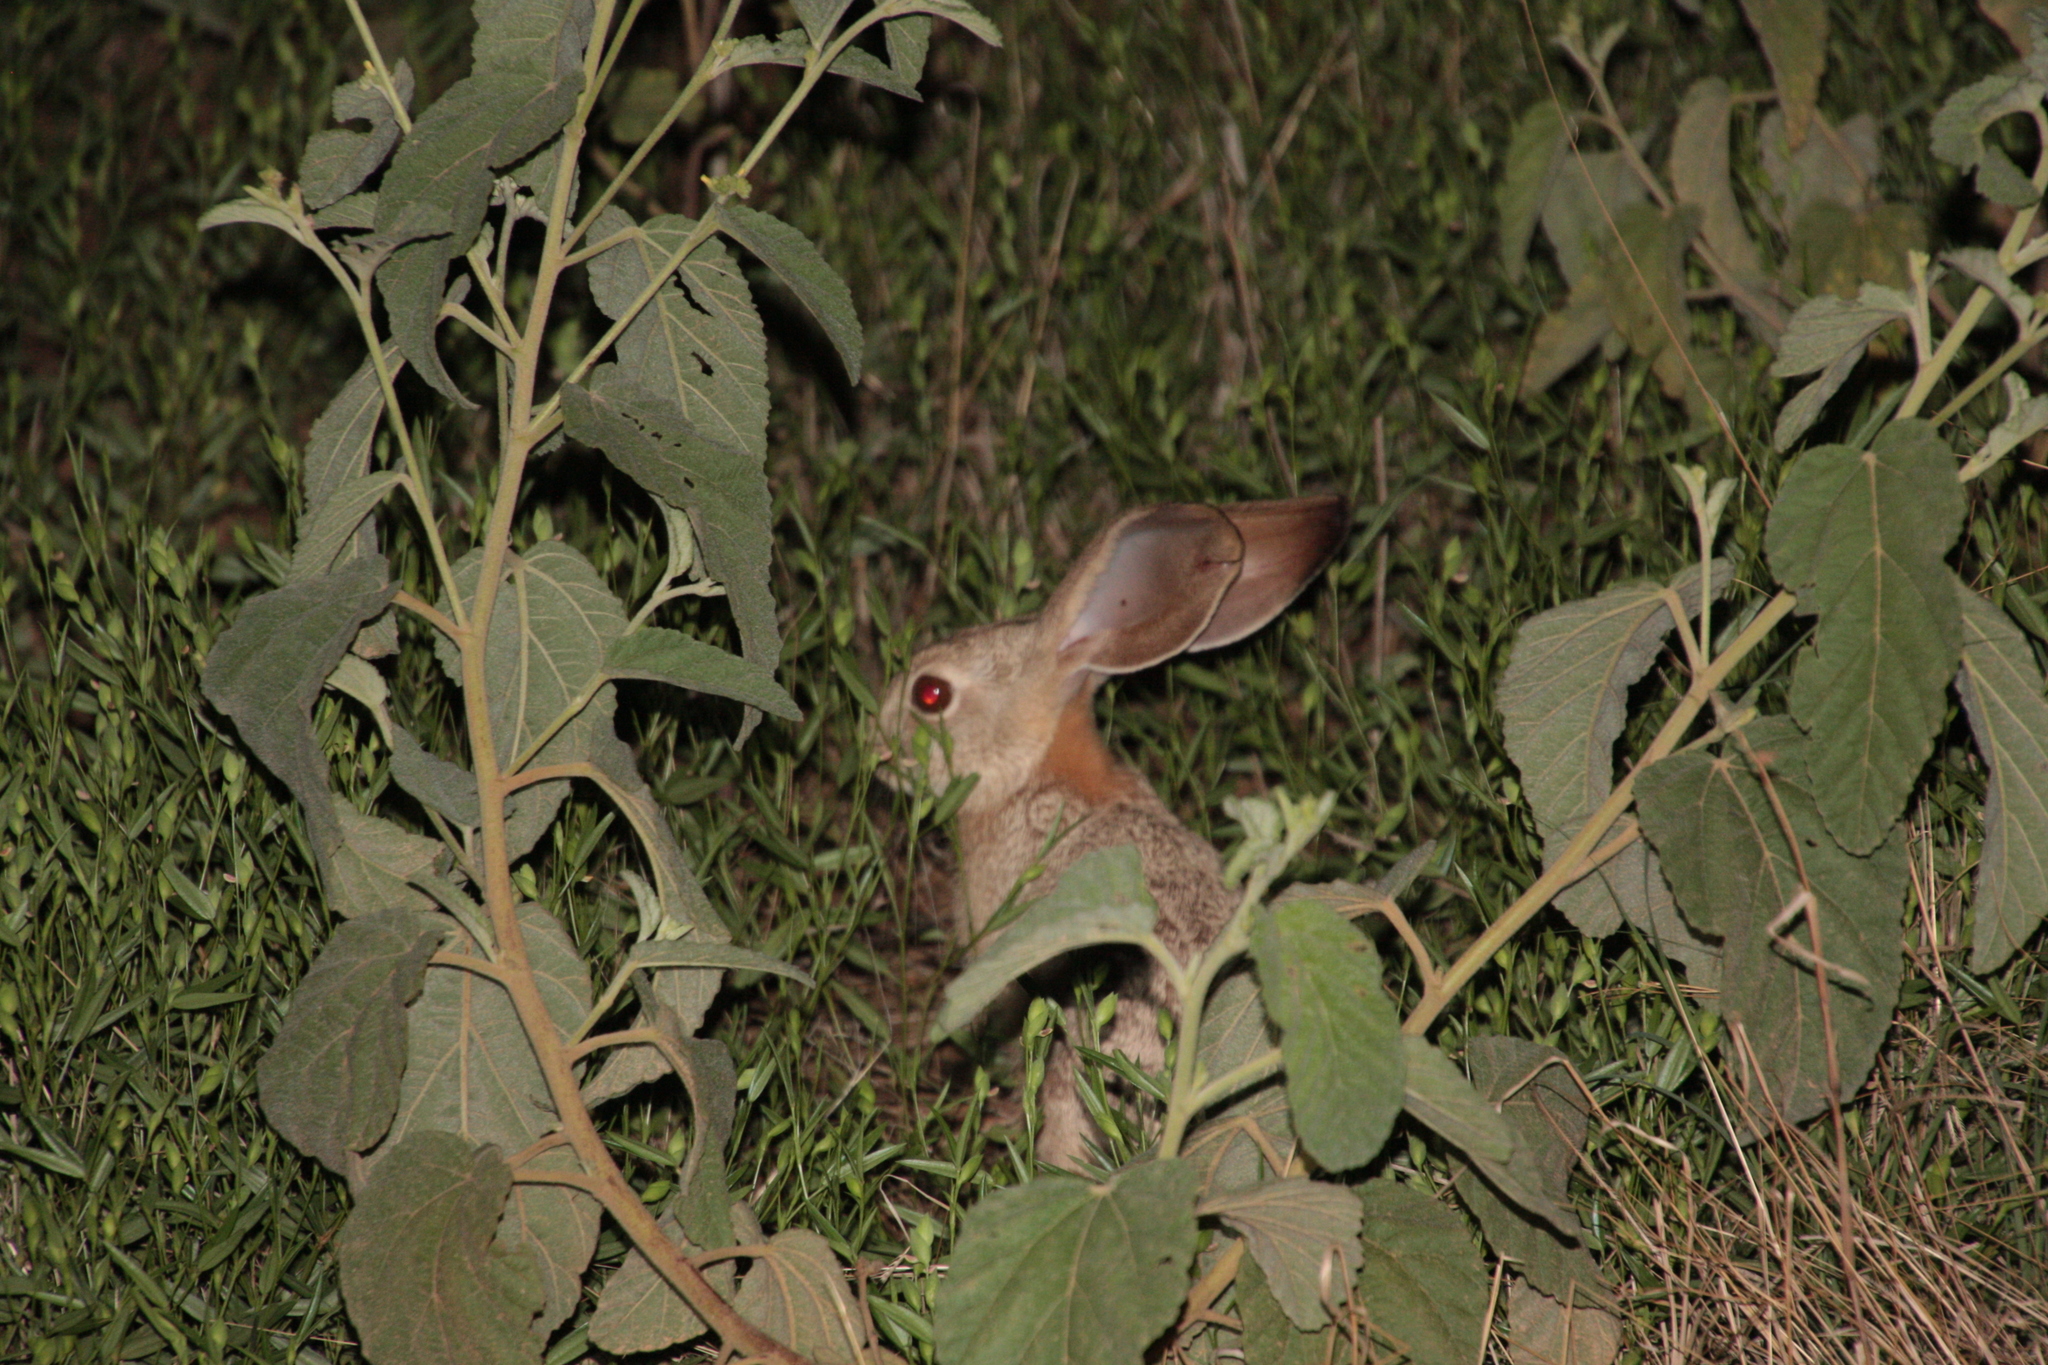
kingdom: Animalia
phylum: Chordata
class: Mammalia
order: Lagomorpha
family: Leporidae
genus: Lepus
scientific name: Lepus victoriae
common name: African savanna hare
